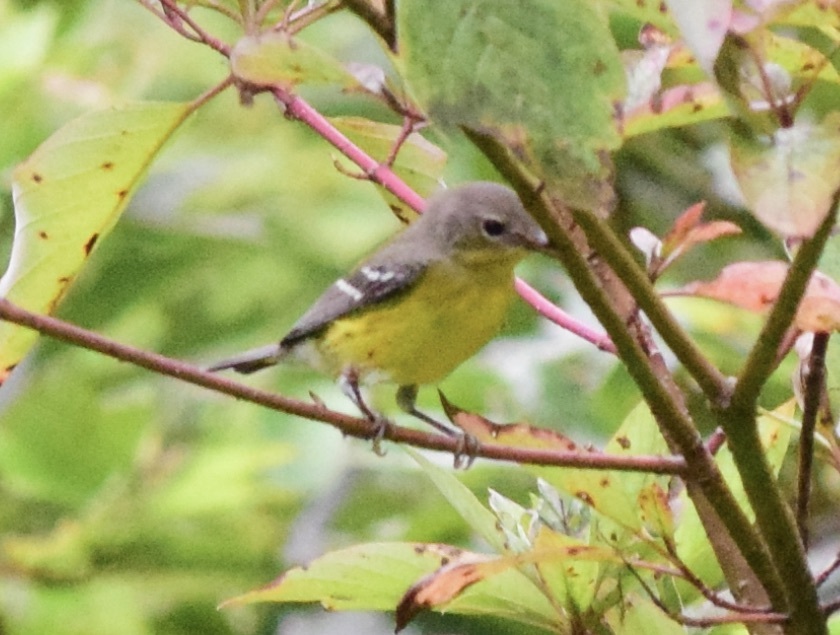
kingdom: Animalia
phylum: Chordata
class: Aves
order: Passeriformes
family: Parulidae
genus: Setophaga
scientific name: Setophaga magnolia
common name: Magnolia warbler
